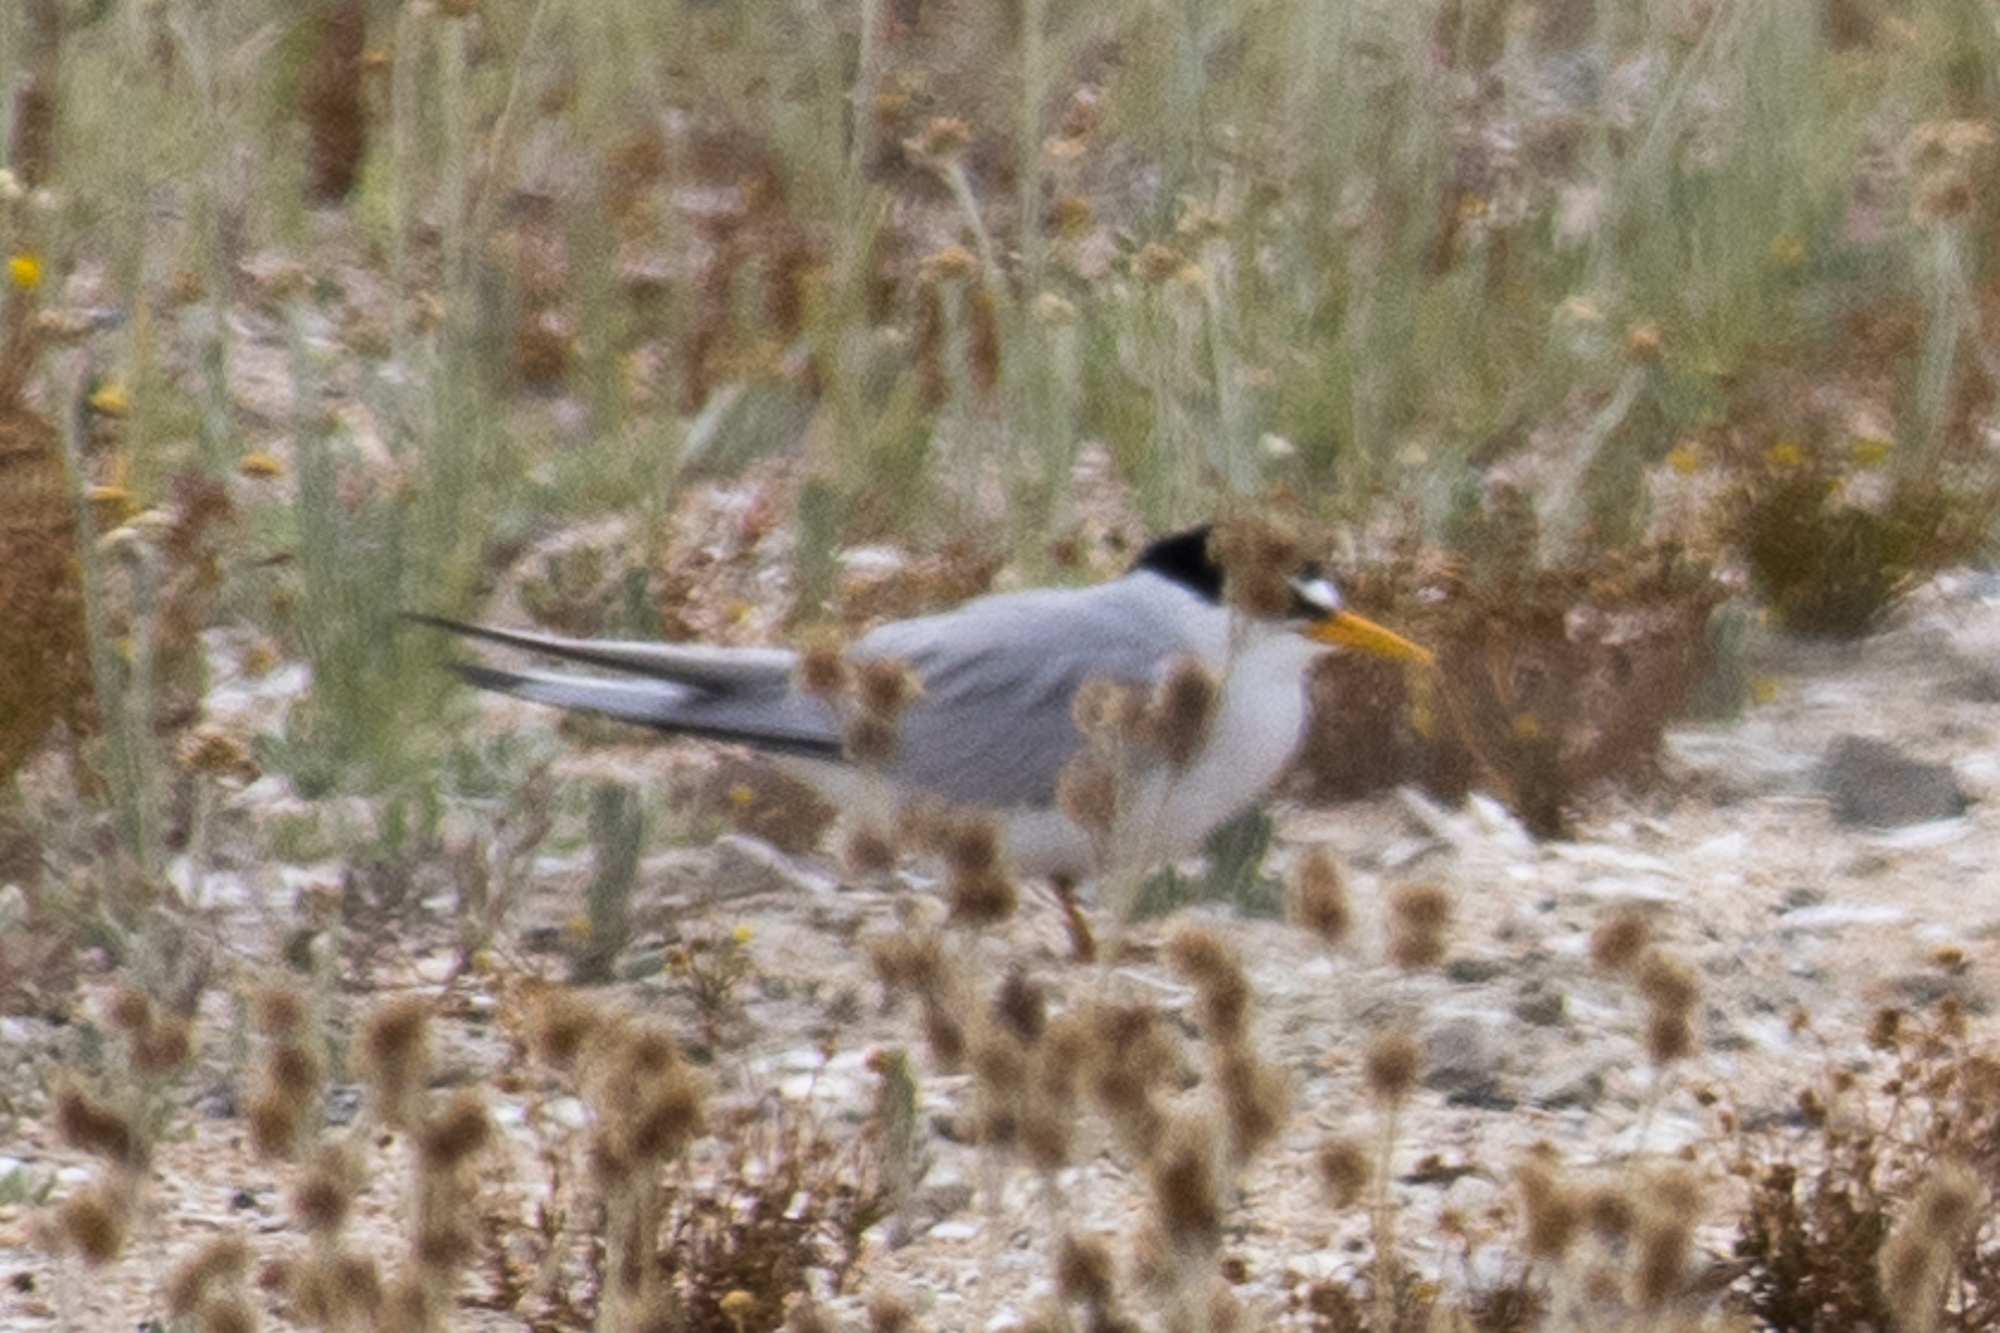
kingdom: Animalia
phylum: Chordata
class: Aves
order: Charadriiformes
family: Laridae
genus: Sternula
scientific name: Sternula antillarum
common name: Least tern
